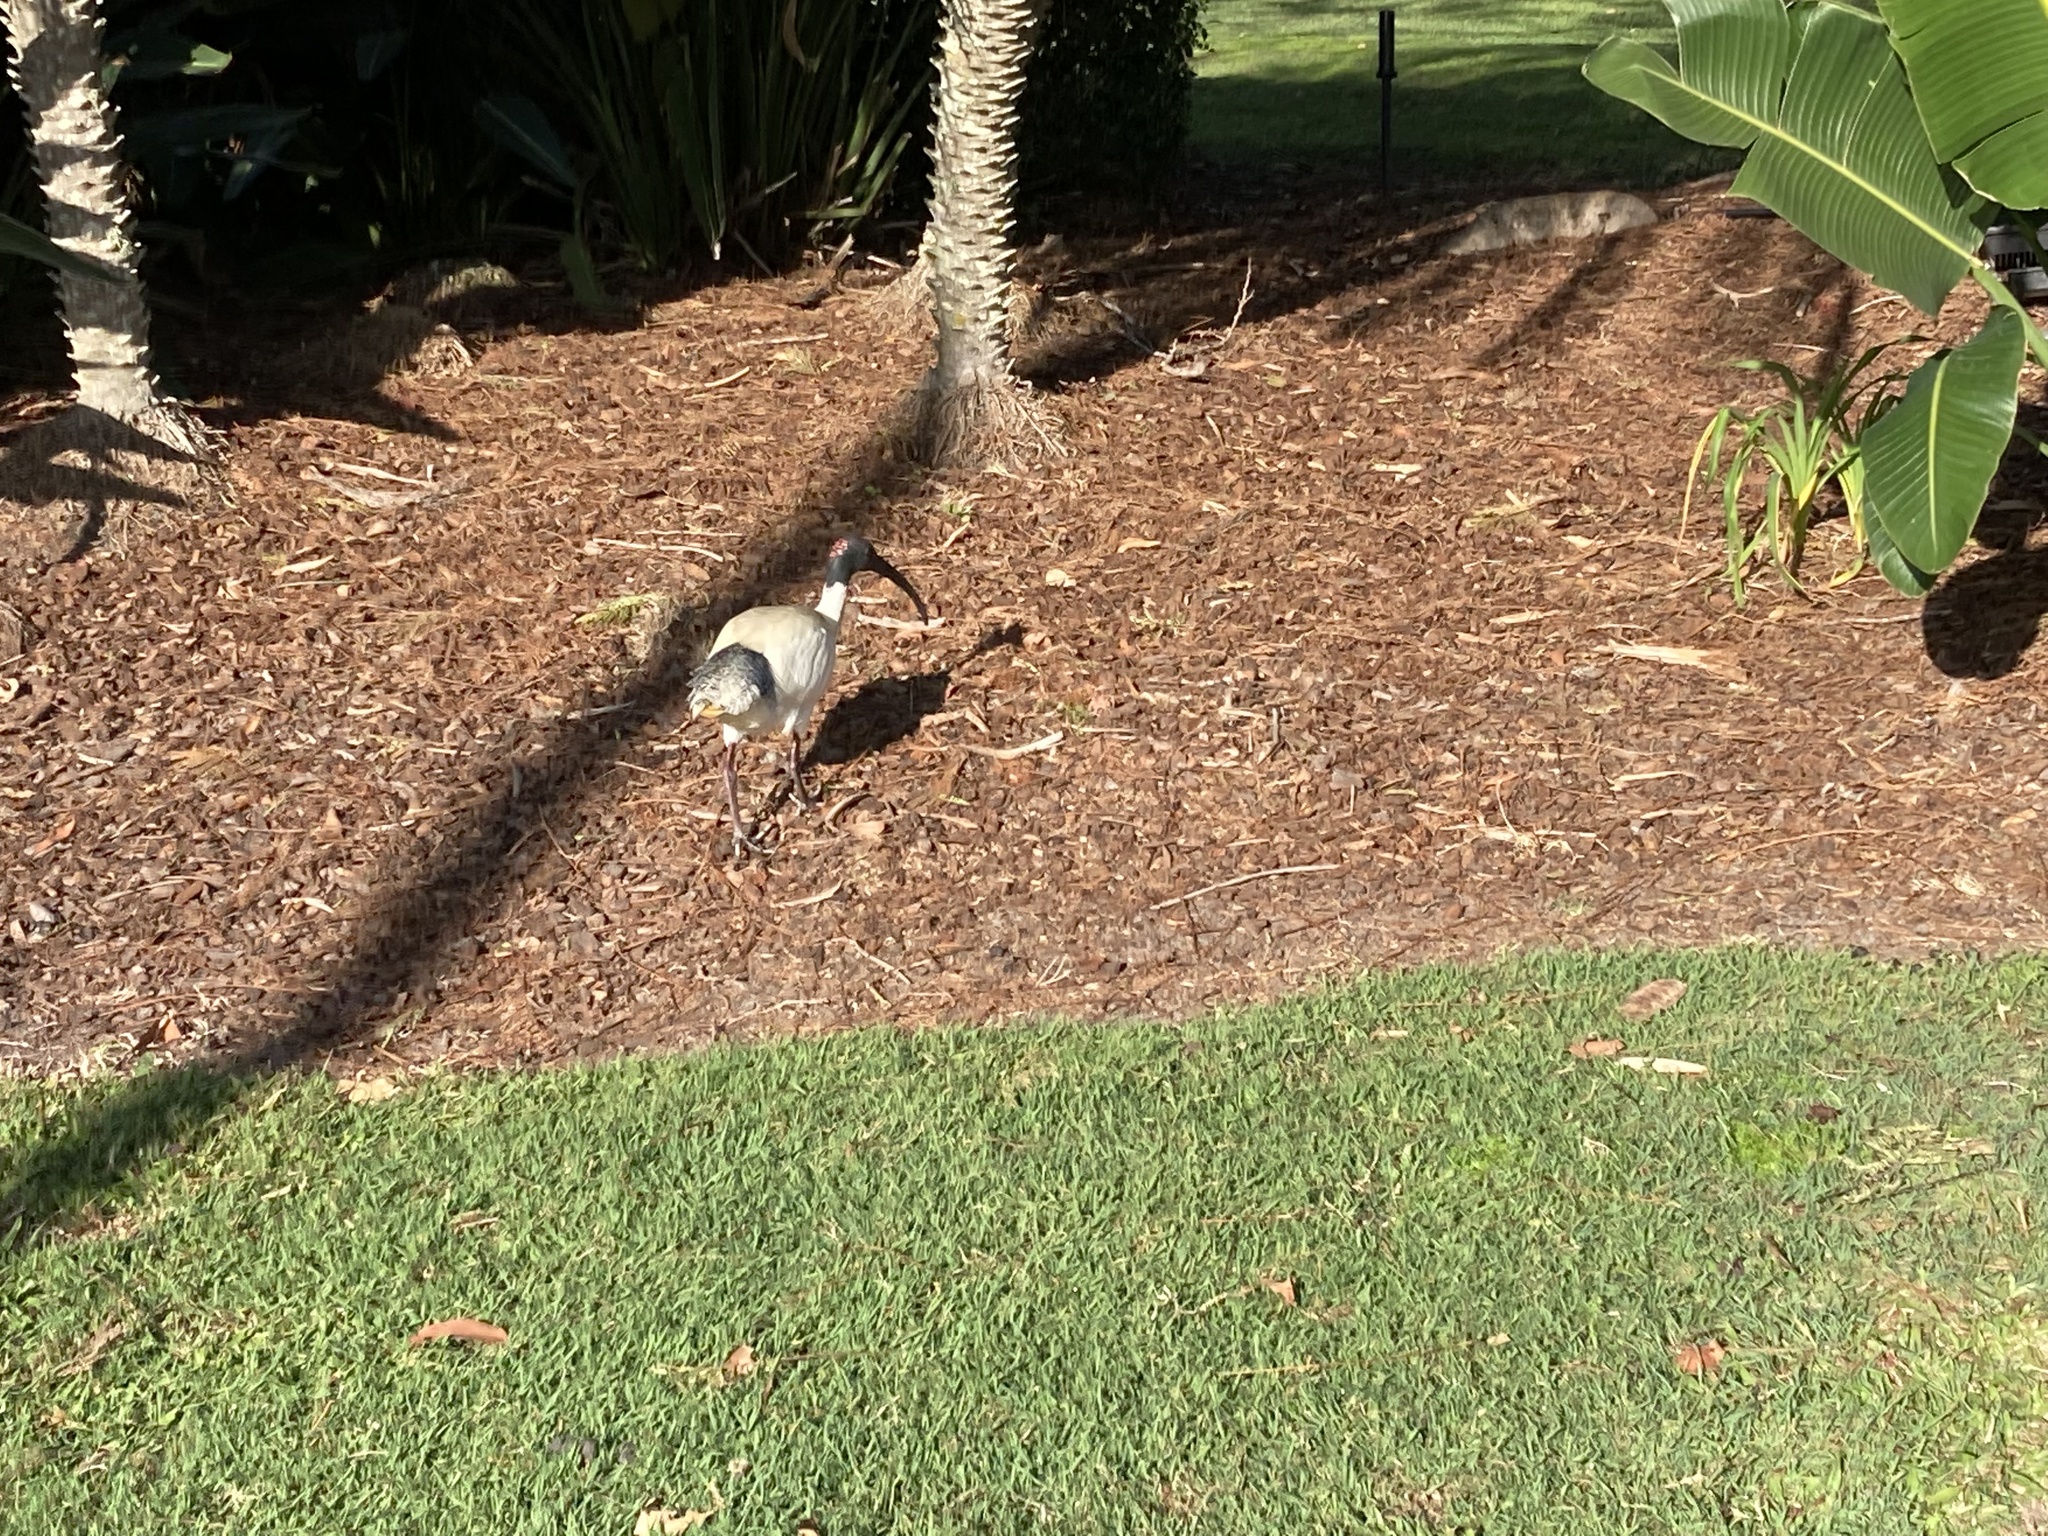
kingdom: Animalia
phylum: Chordata
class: Aves
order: Pelecaniformes
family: Threskiornithidae
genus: Threskiornis
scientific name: Threskiornis molucca
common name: Australian white ibis
